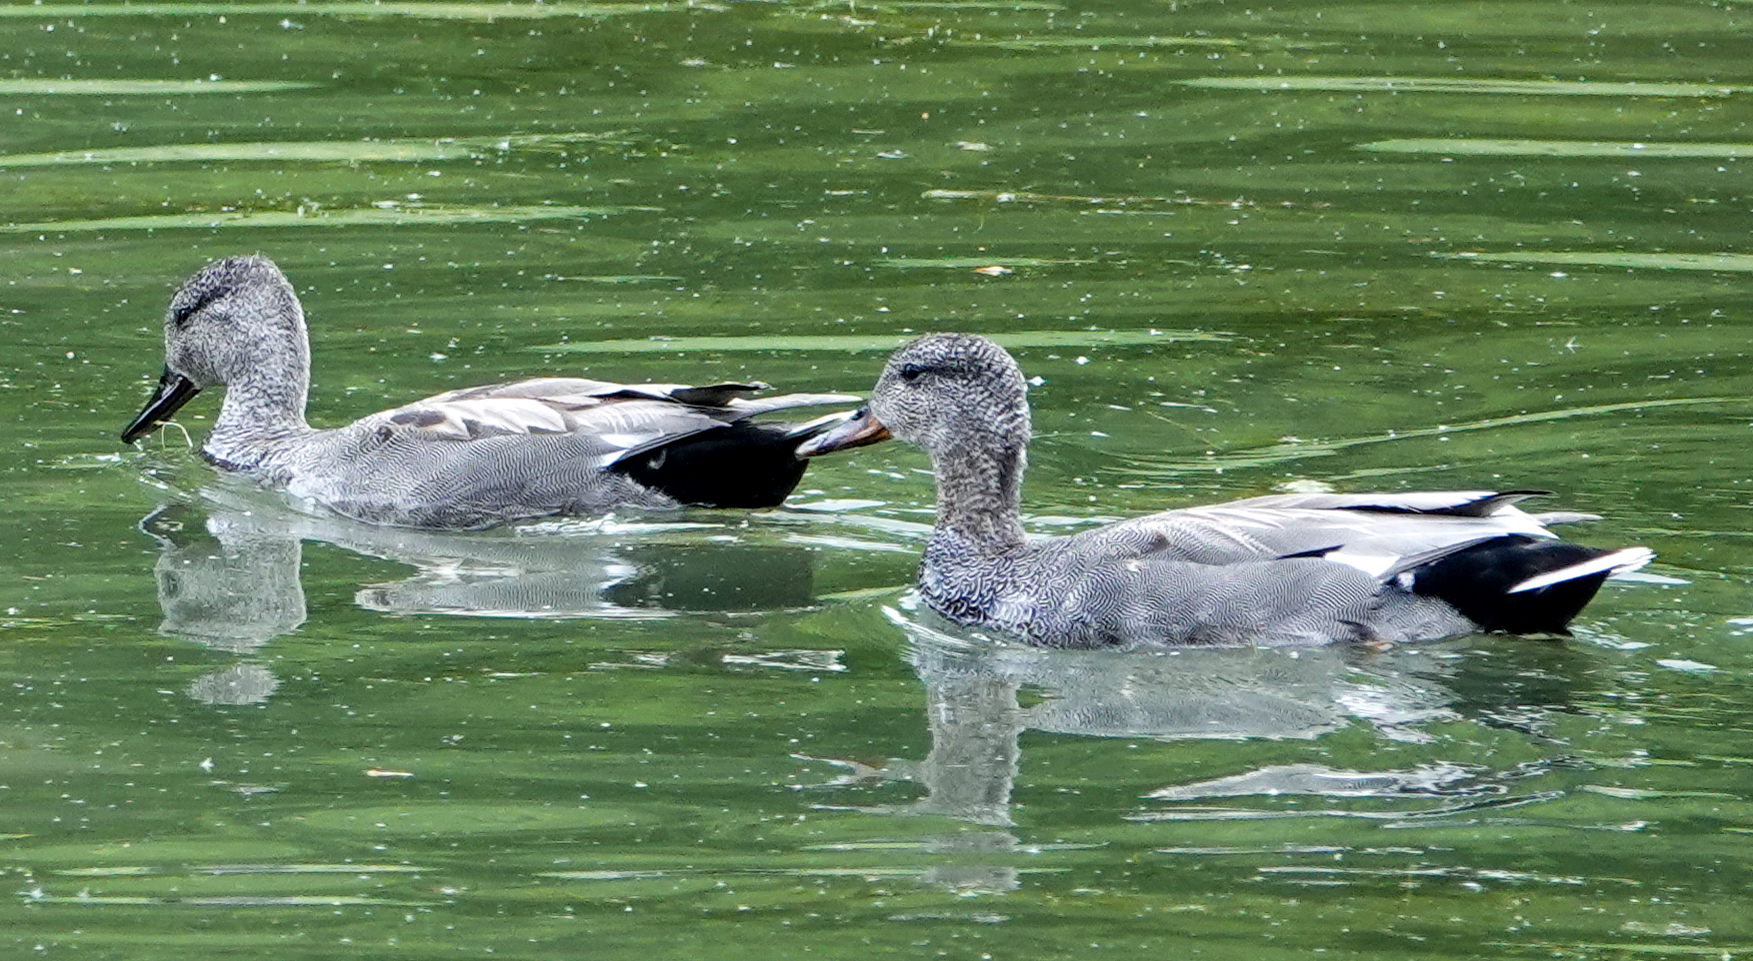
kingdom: Animalia
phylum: Chordata
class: Aves
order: Anseriformes
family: Anatidae
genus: Mareca
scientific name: Mareca strepera
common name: Gadwall
